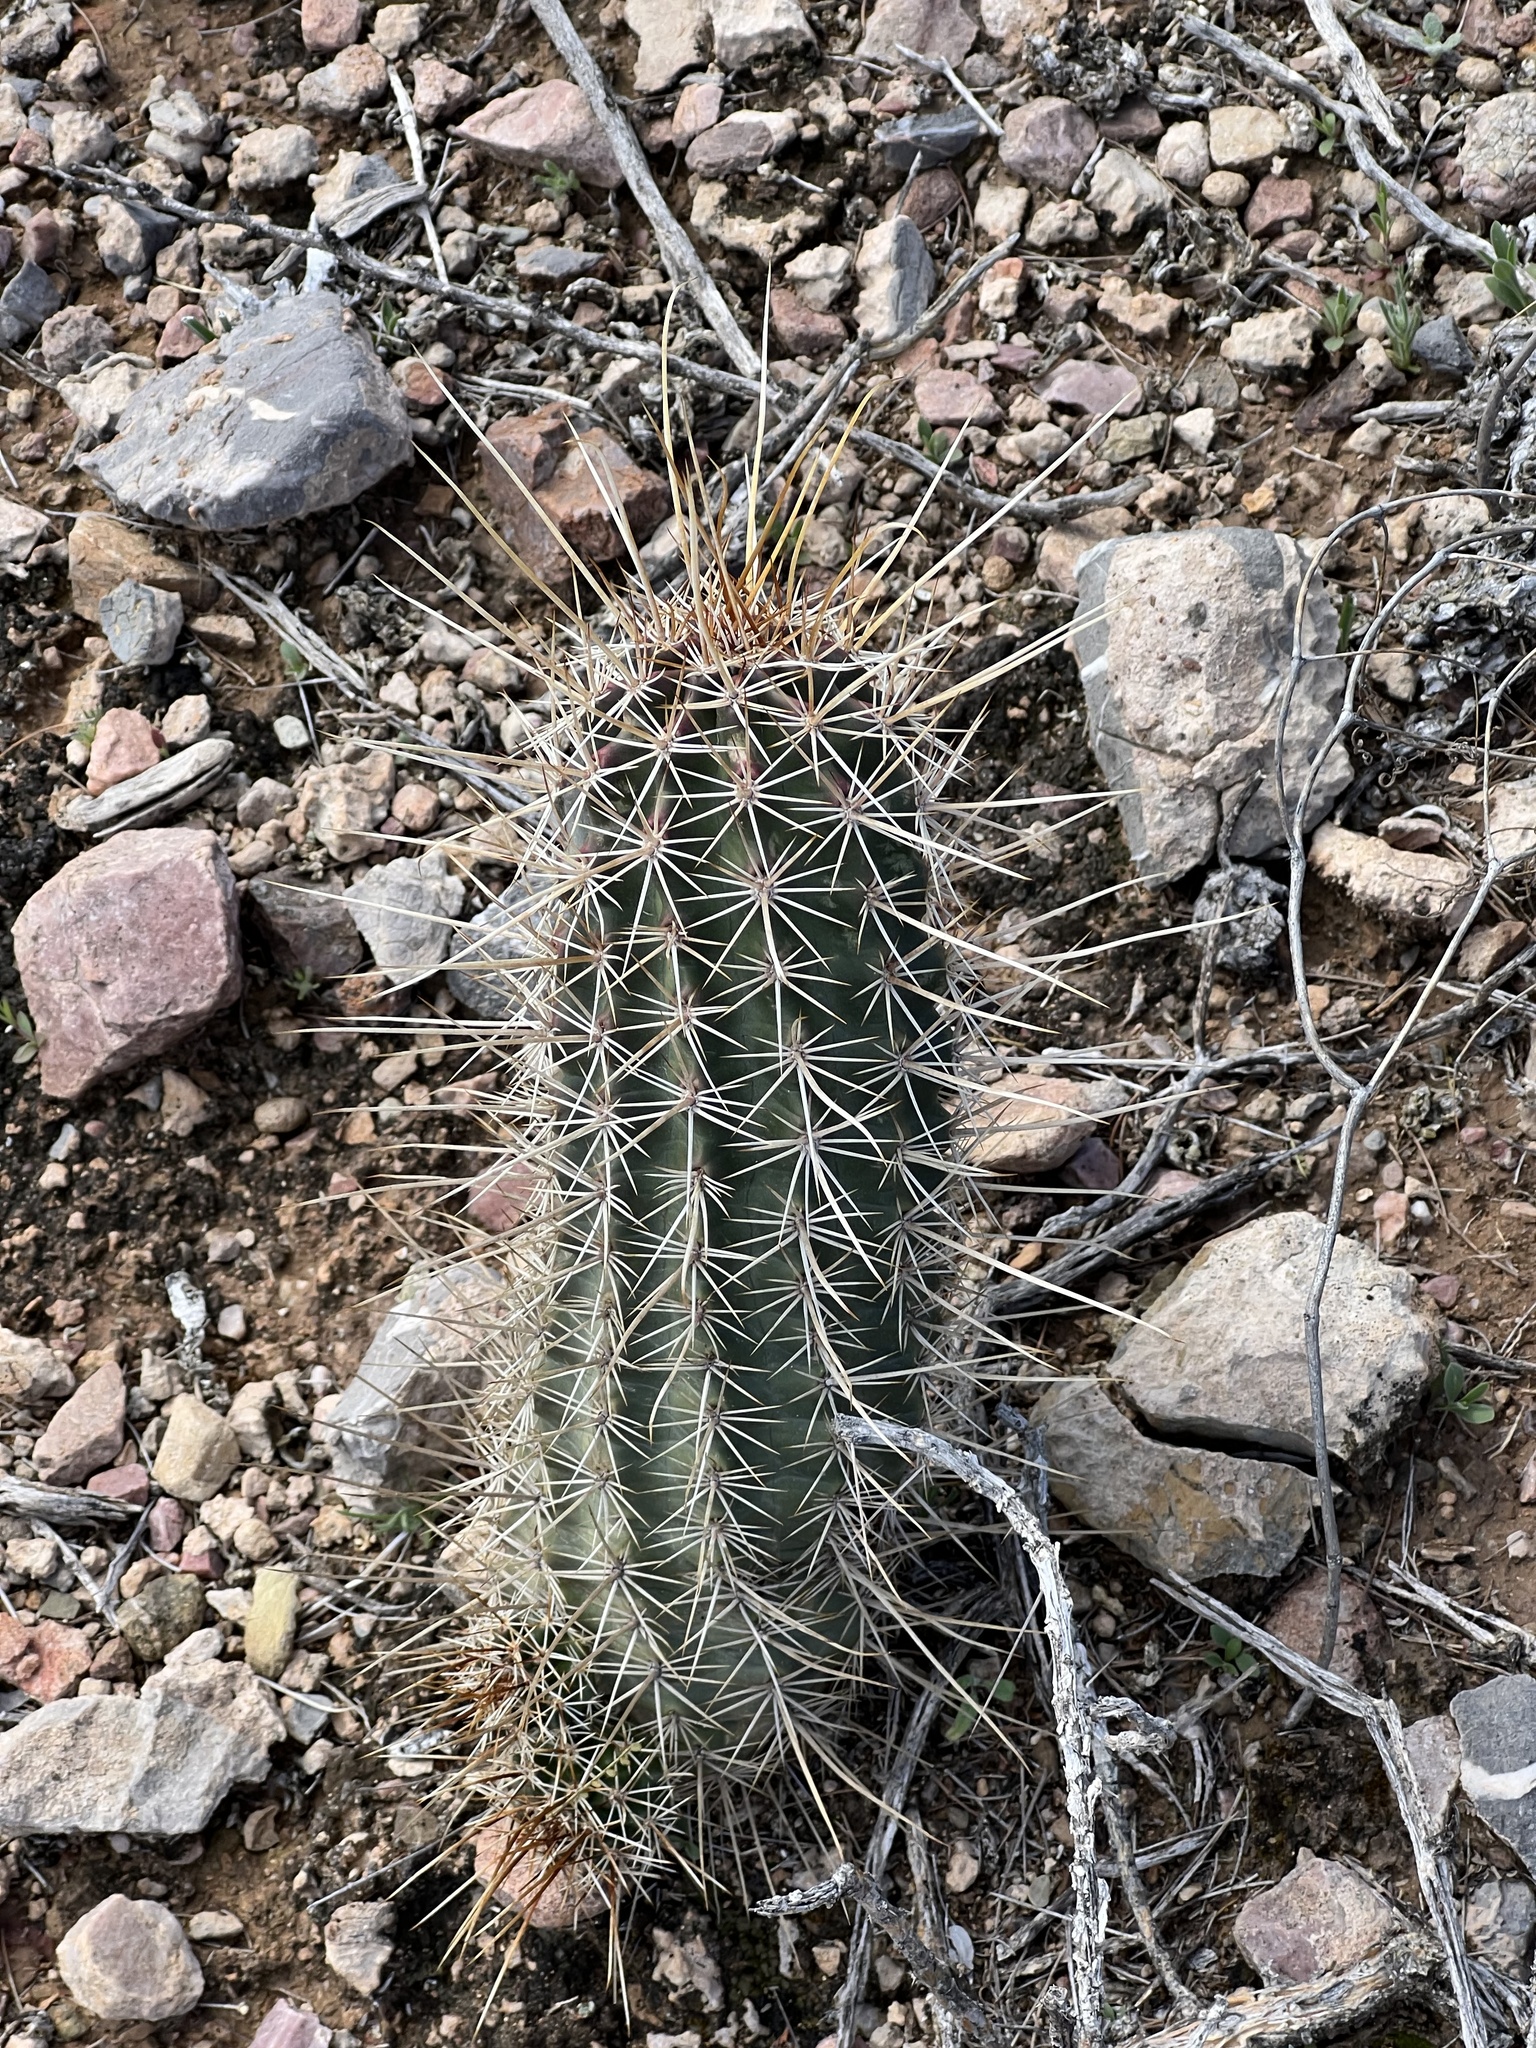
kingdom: Plantae
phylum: Tracheophyta
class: Magnoliopsida
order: Caryophyllales
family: Cactaceae
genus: Echinocereus
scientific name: Echinocereus fasciculatus
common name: Bundle hedgehog
